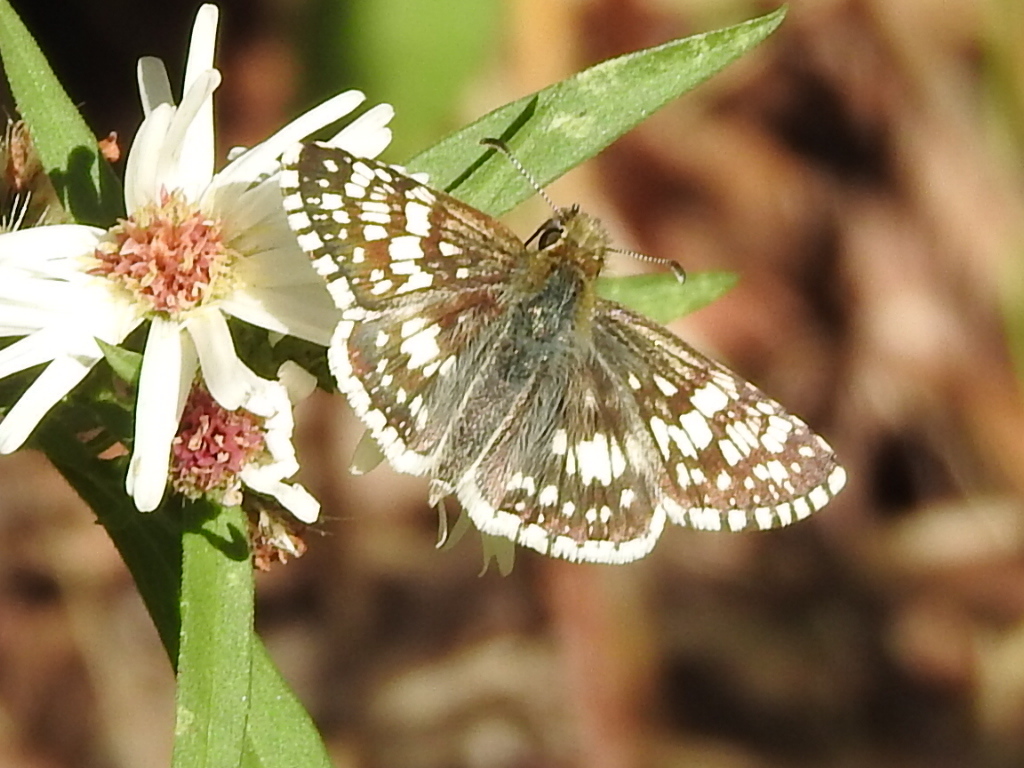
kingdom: Animalia
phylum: Arthropoda
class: Insecta
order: Lepidoptera
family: Hesperiidae
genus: Burnsius
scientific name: Burnsius
